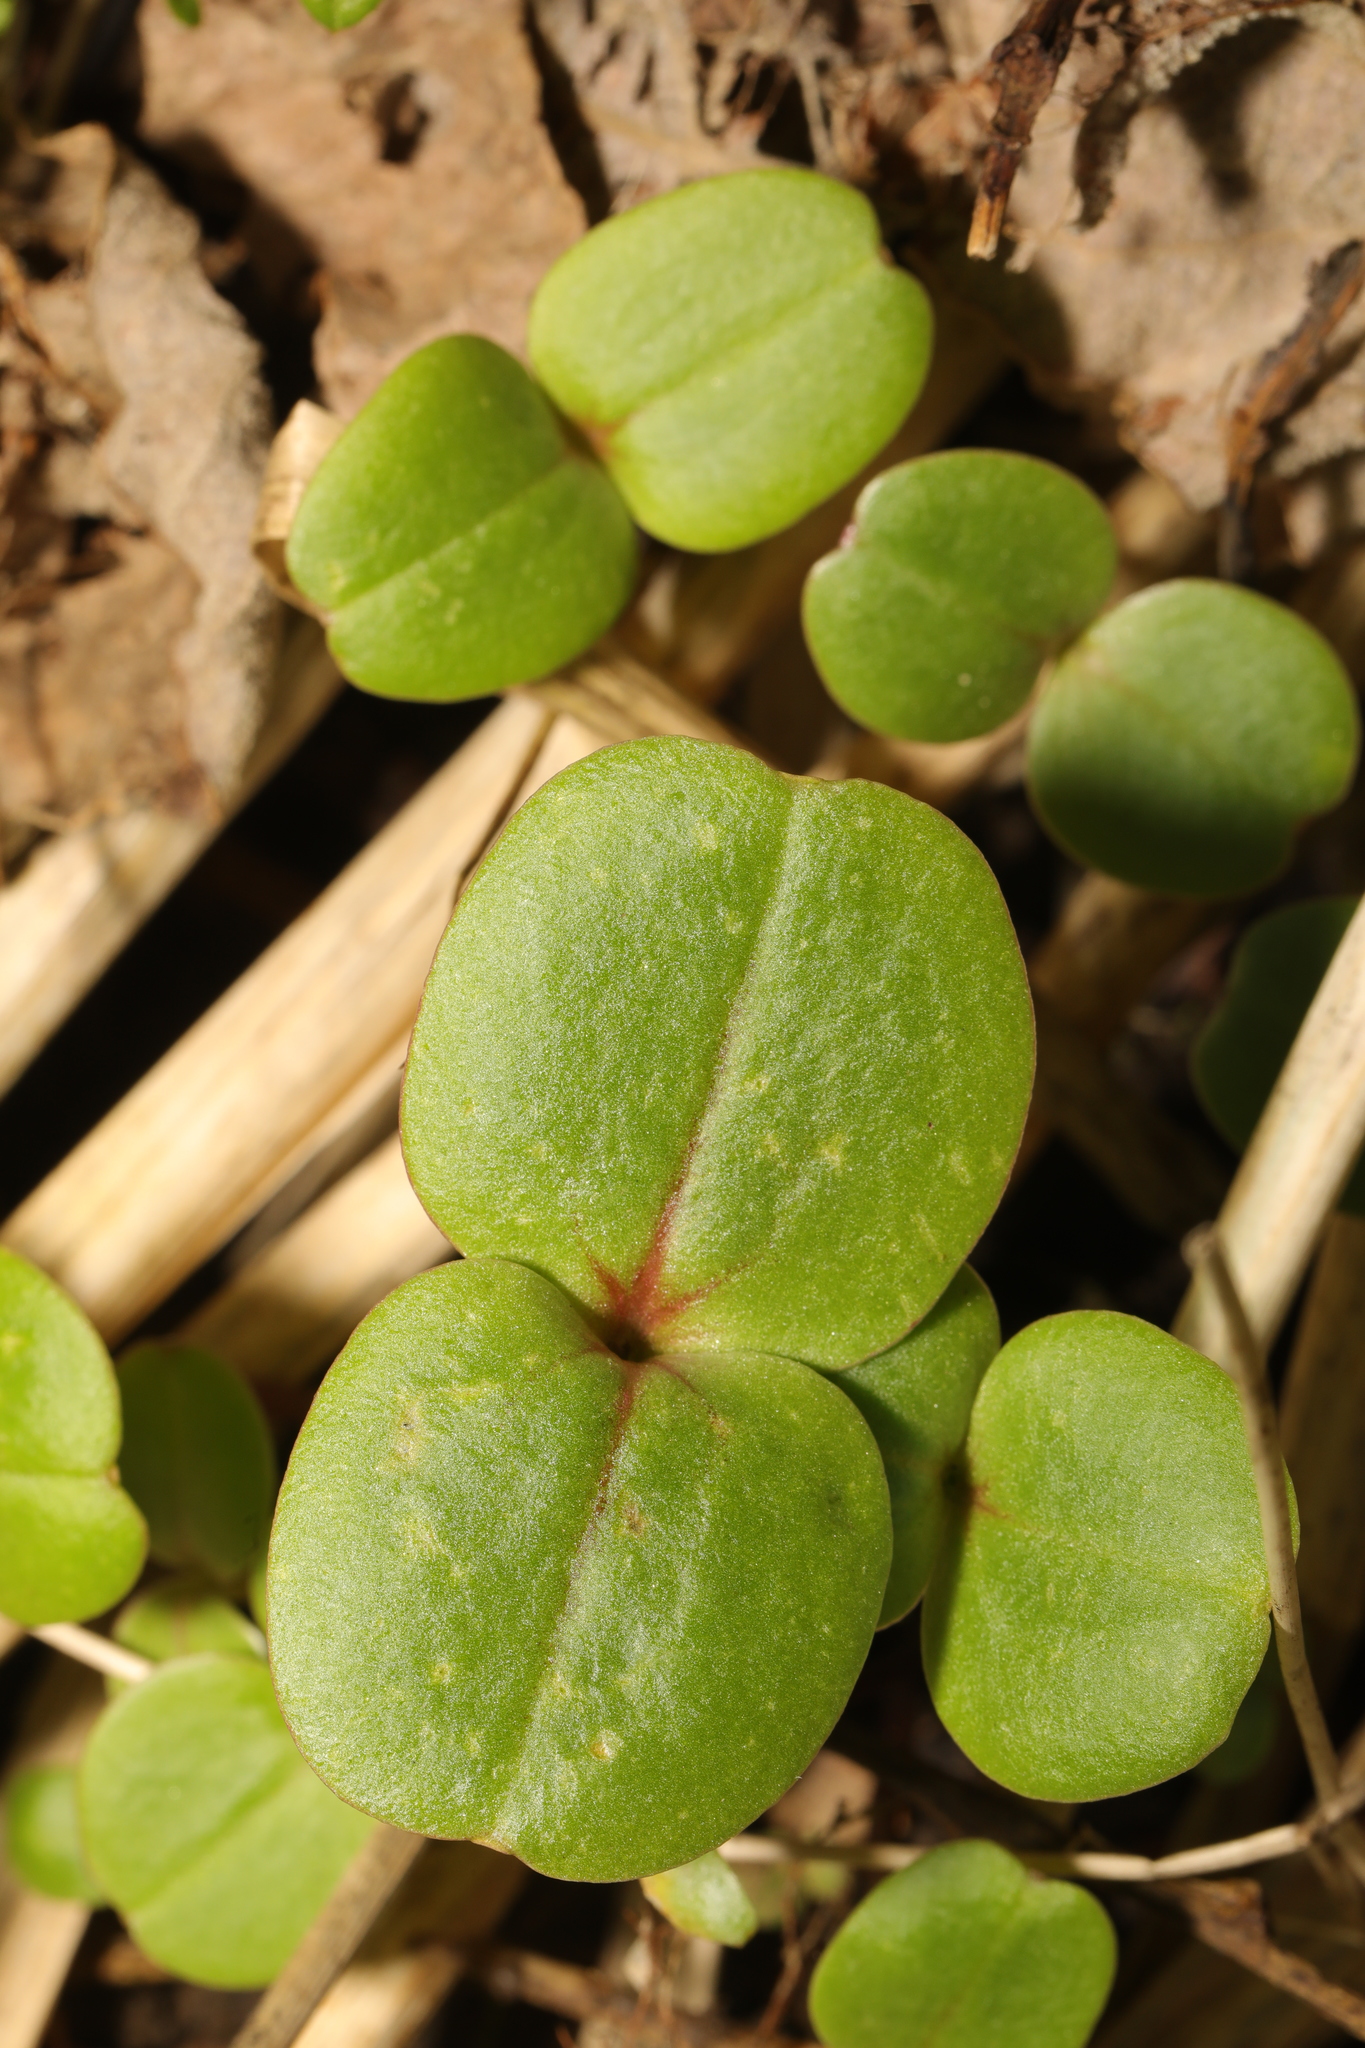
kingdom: Plantae
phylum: Tracheophyta
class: Magnoliopsida
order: Ericales
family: Balsaminaceae
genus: Impatiens
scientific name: Impatiens glandulifera
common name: Himalayan balsam
